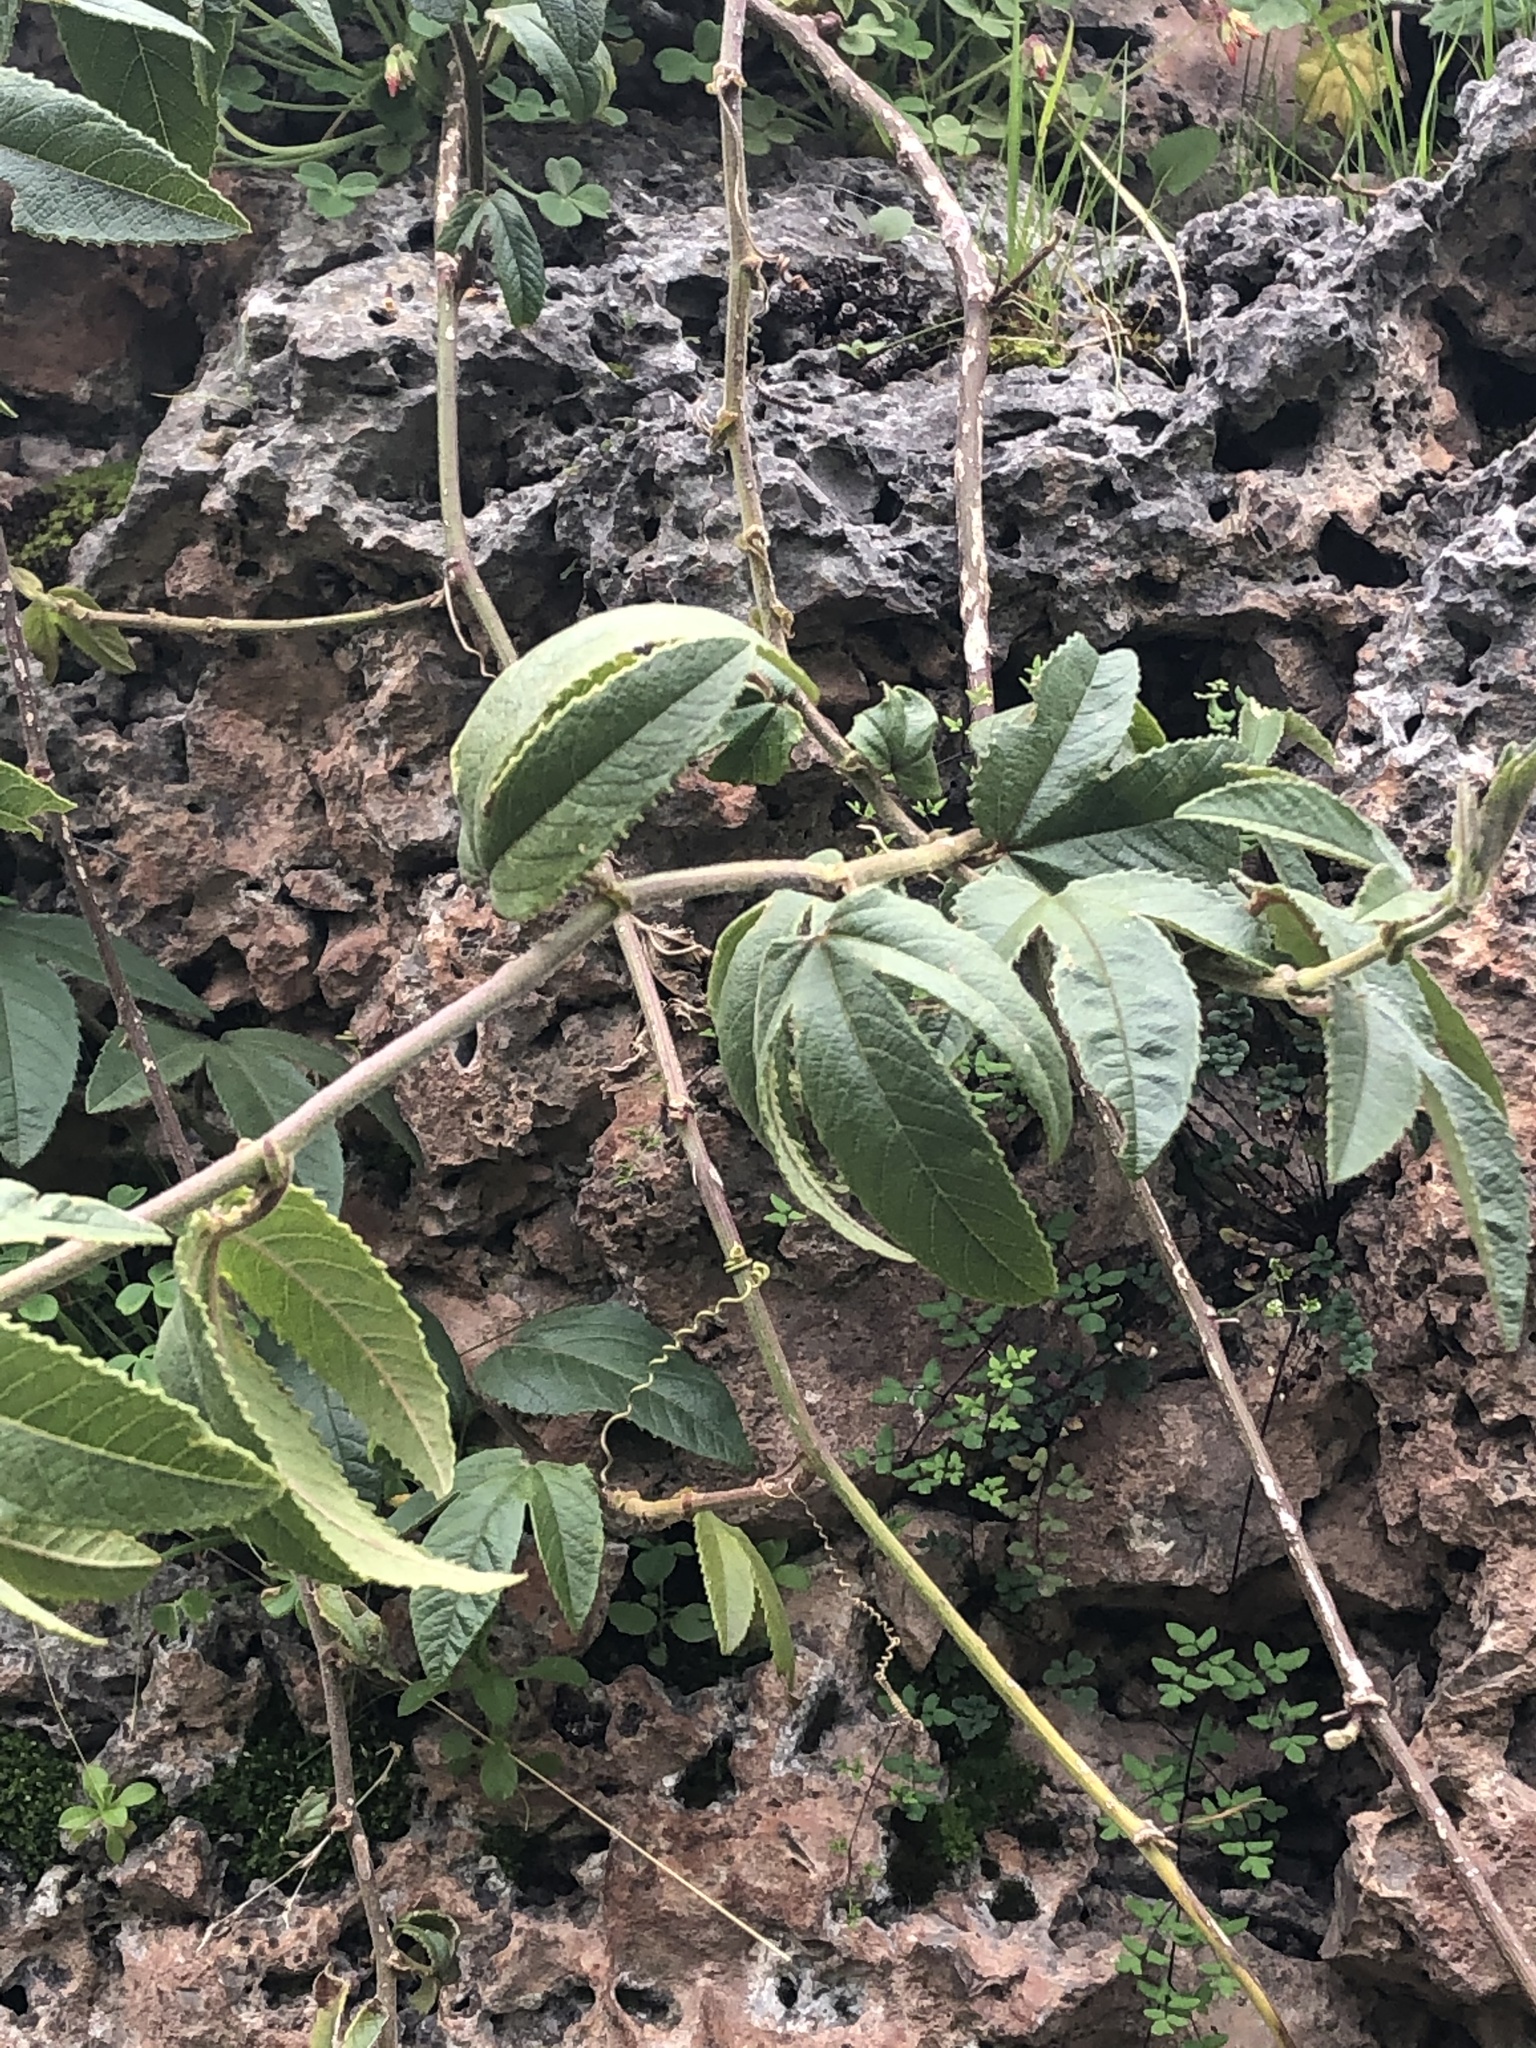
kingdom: Plantae
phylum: Tracheophyta
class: Magnoliopsida
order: Malpighiales
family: Passifloraceae
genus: Passiflora
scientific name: Passiflora tripartita
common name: Banana poka
